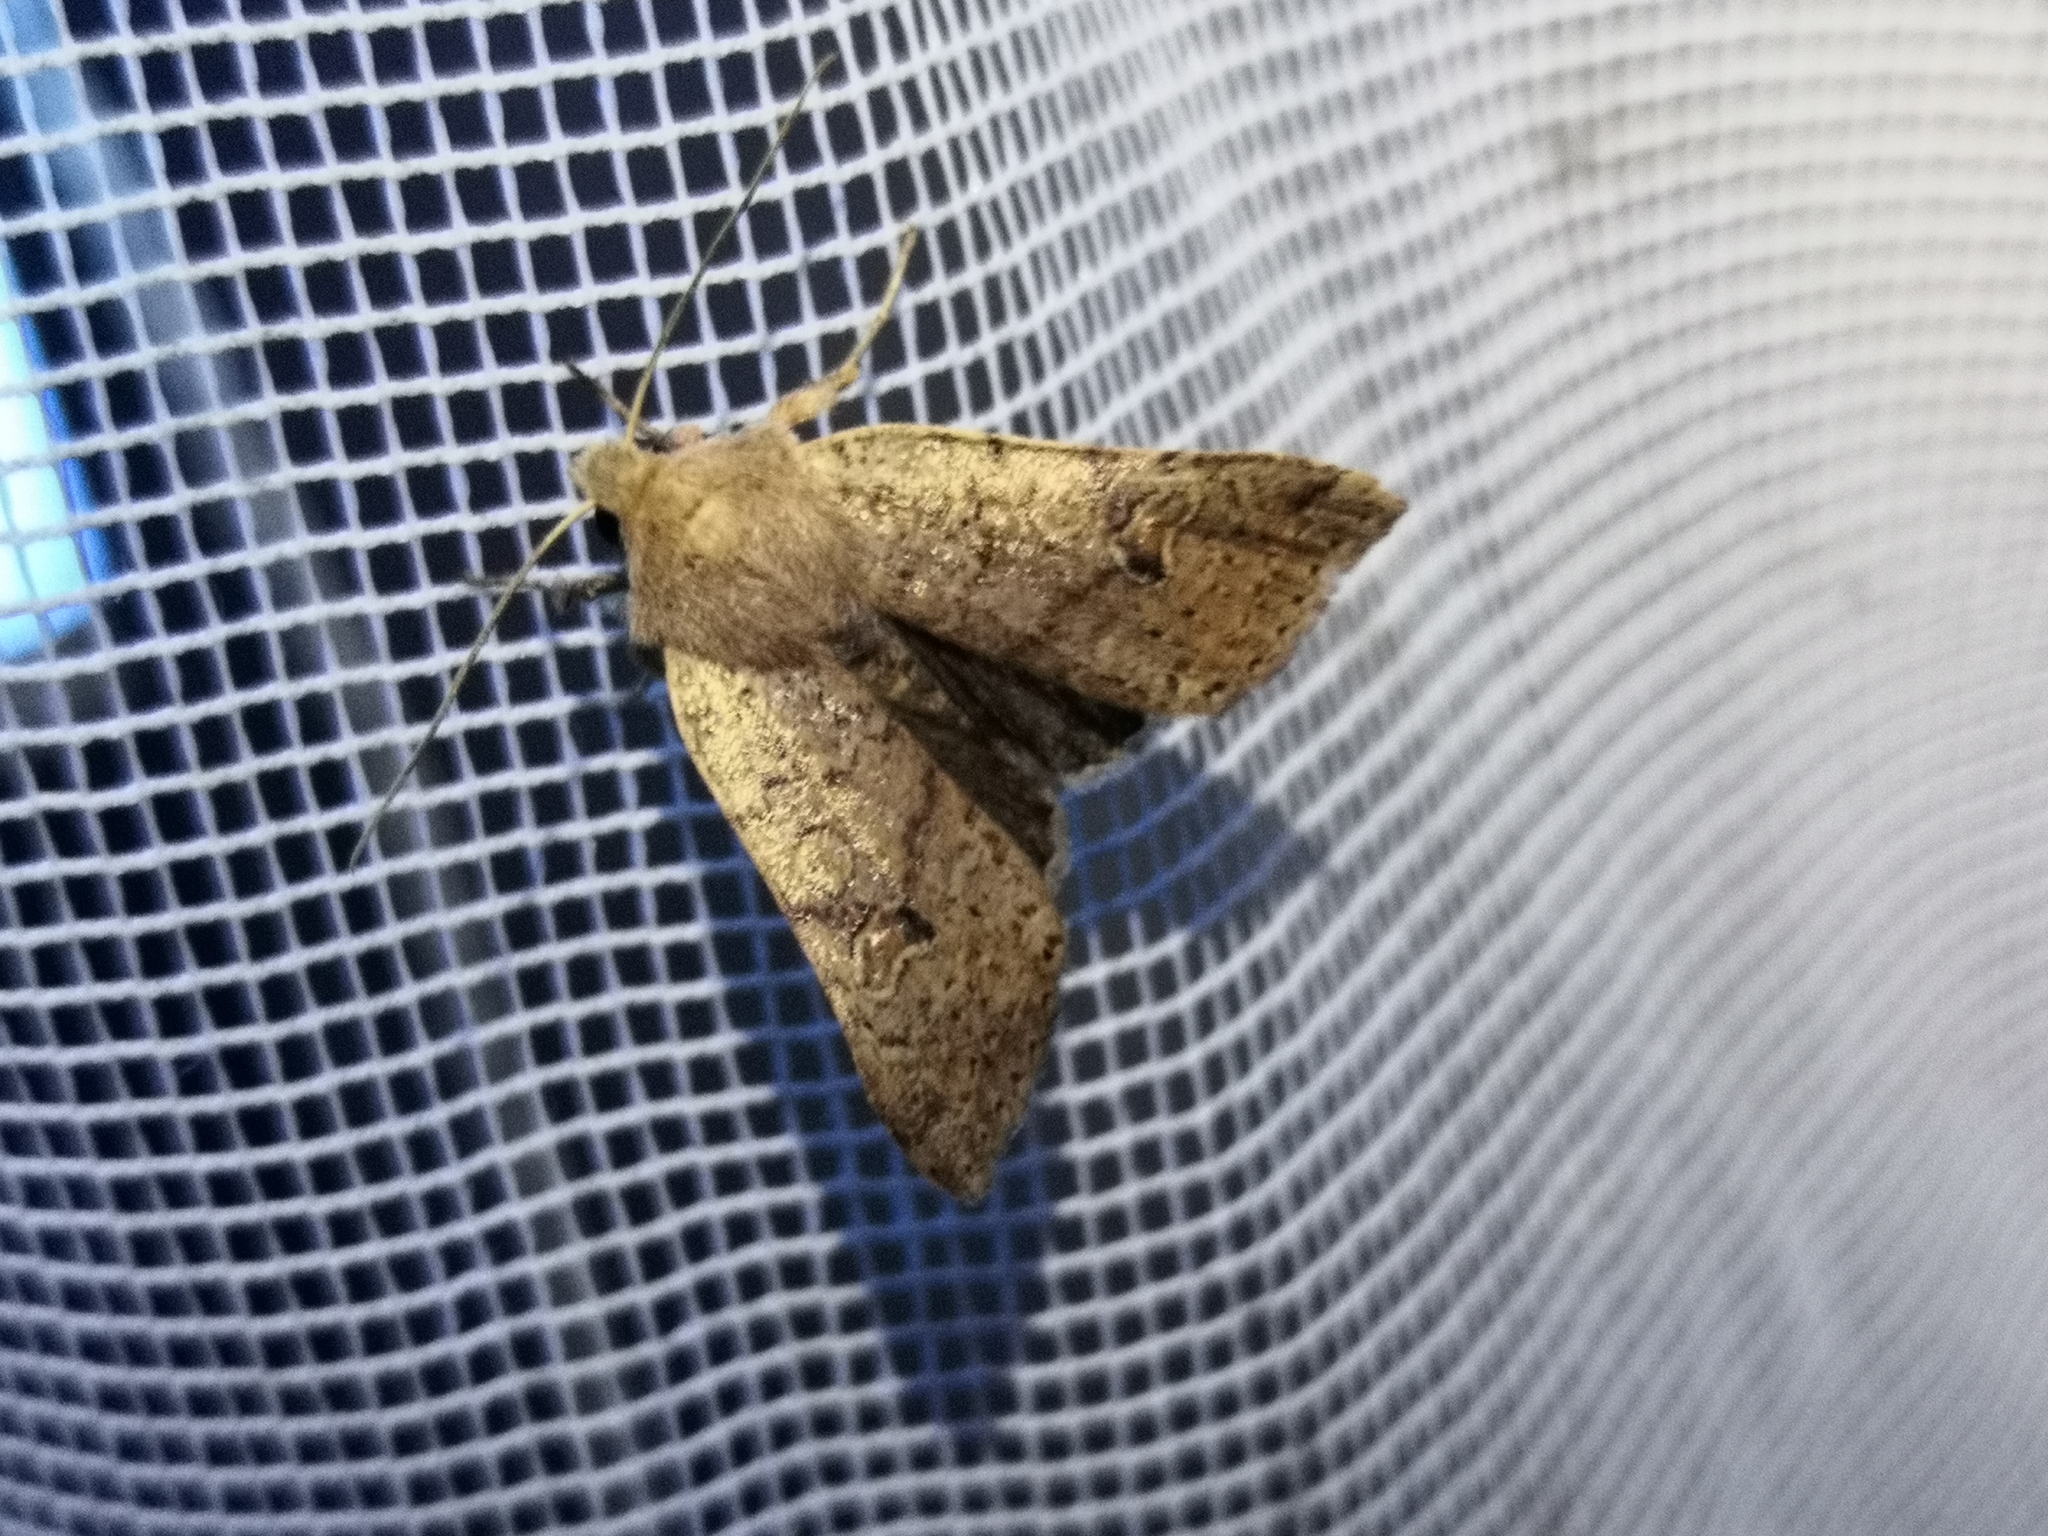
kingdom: Animalia
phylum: Arthropoda
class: Insecta
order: Lepidoptera
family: Noctuidae
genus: Agrochola
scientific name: Agrochola laevis
